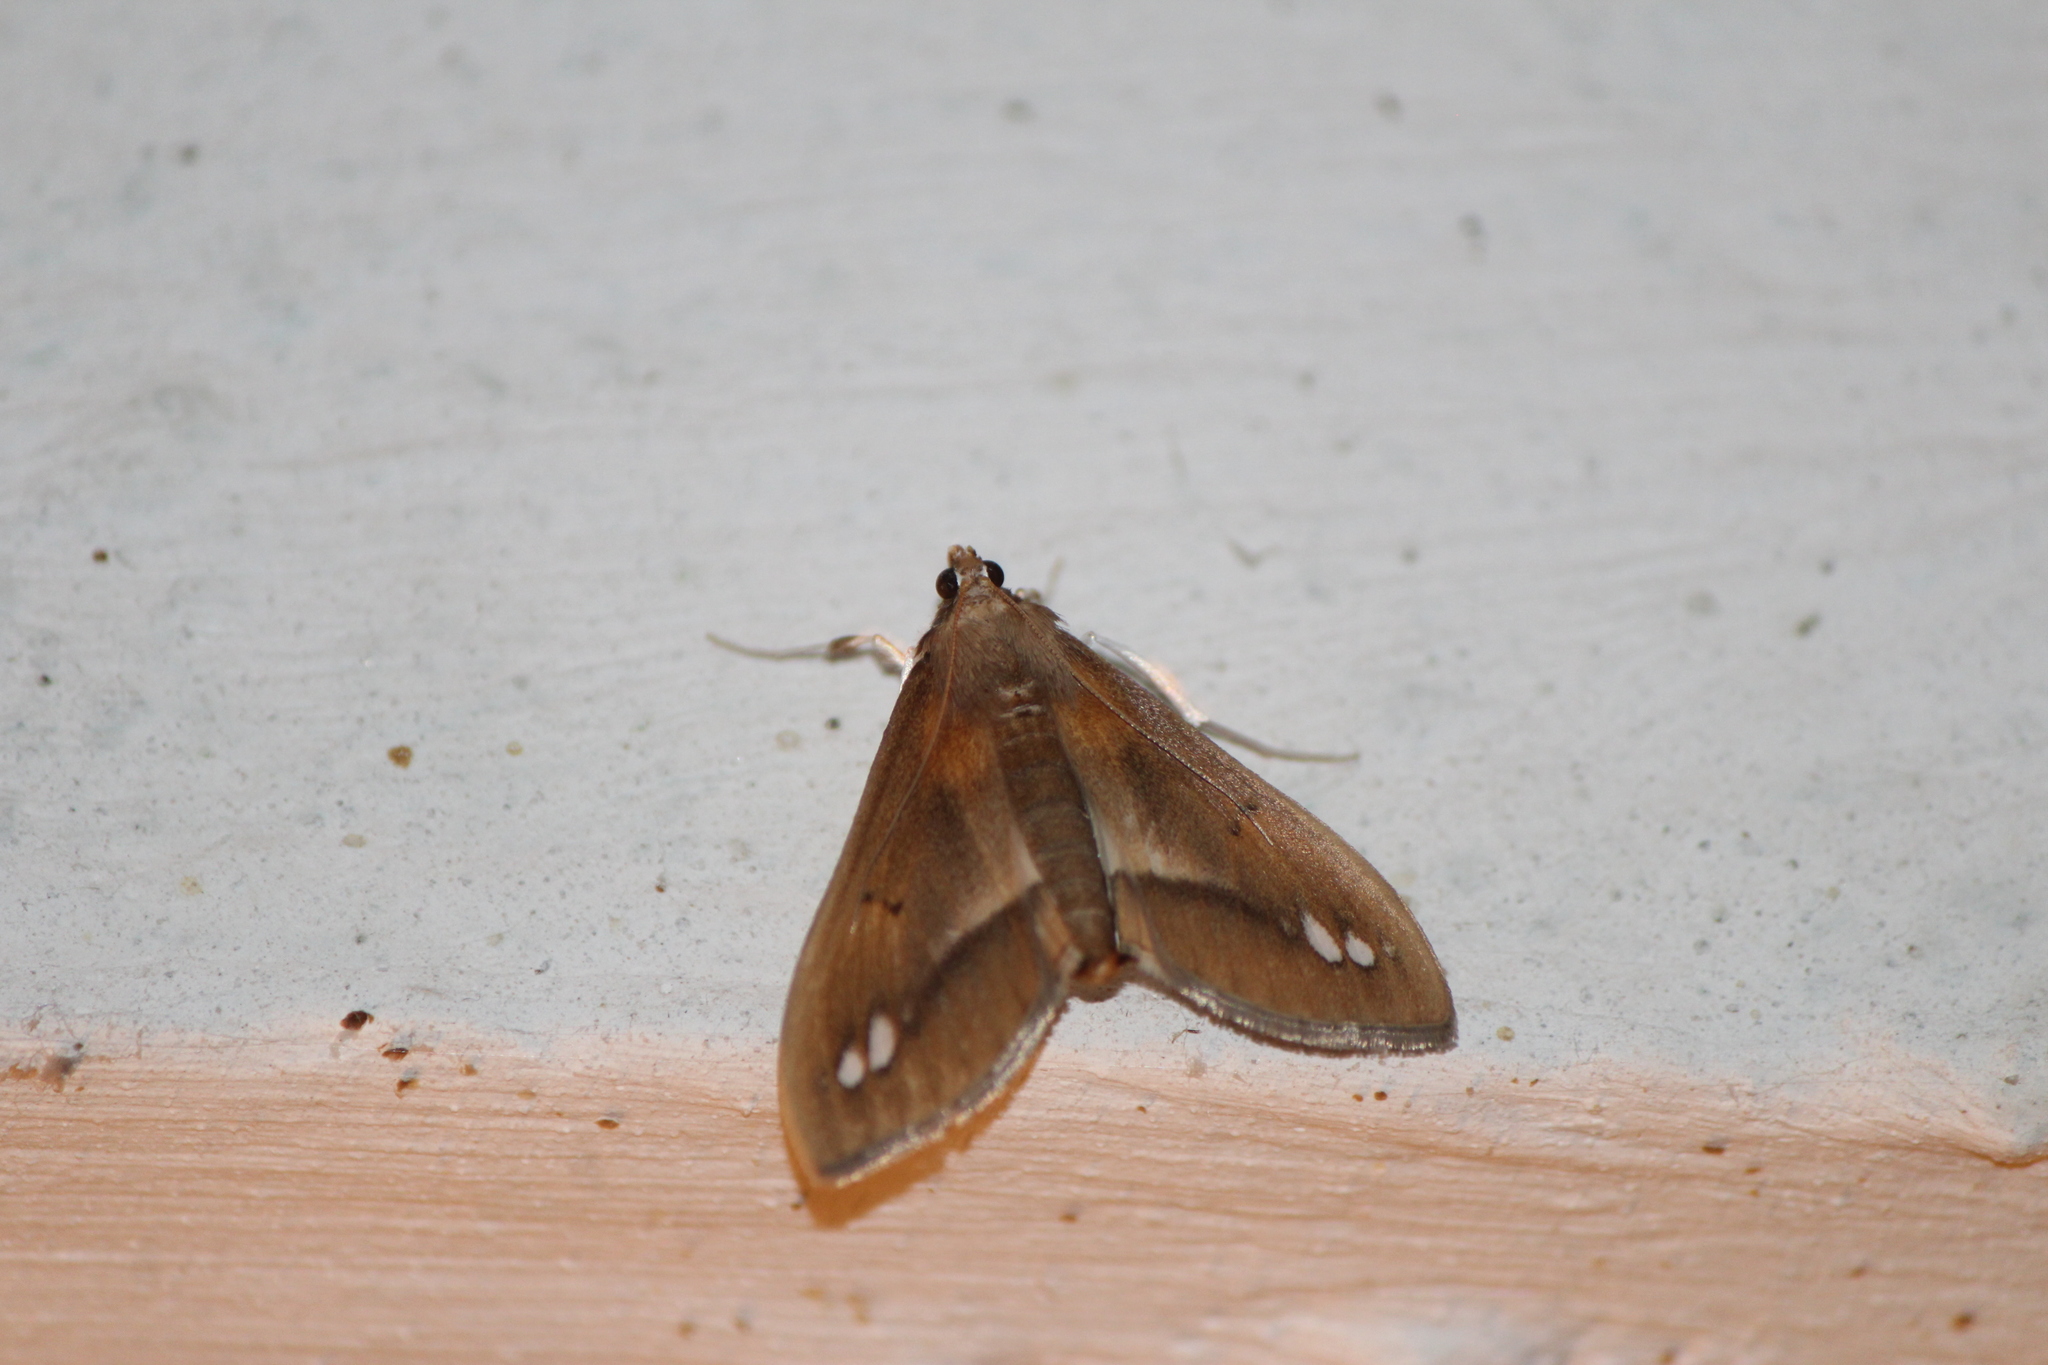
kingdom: Animalia
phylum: Arthropoda
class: Insecta
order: Lepidoptera
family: Crambidae
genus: Diaphania
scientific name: Diaphania
